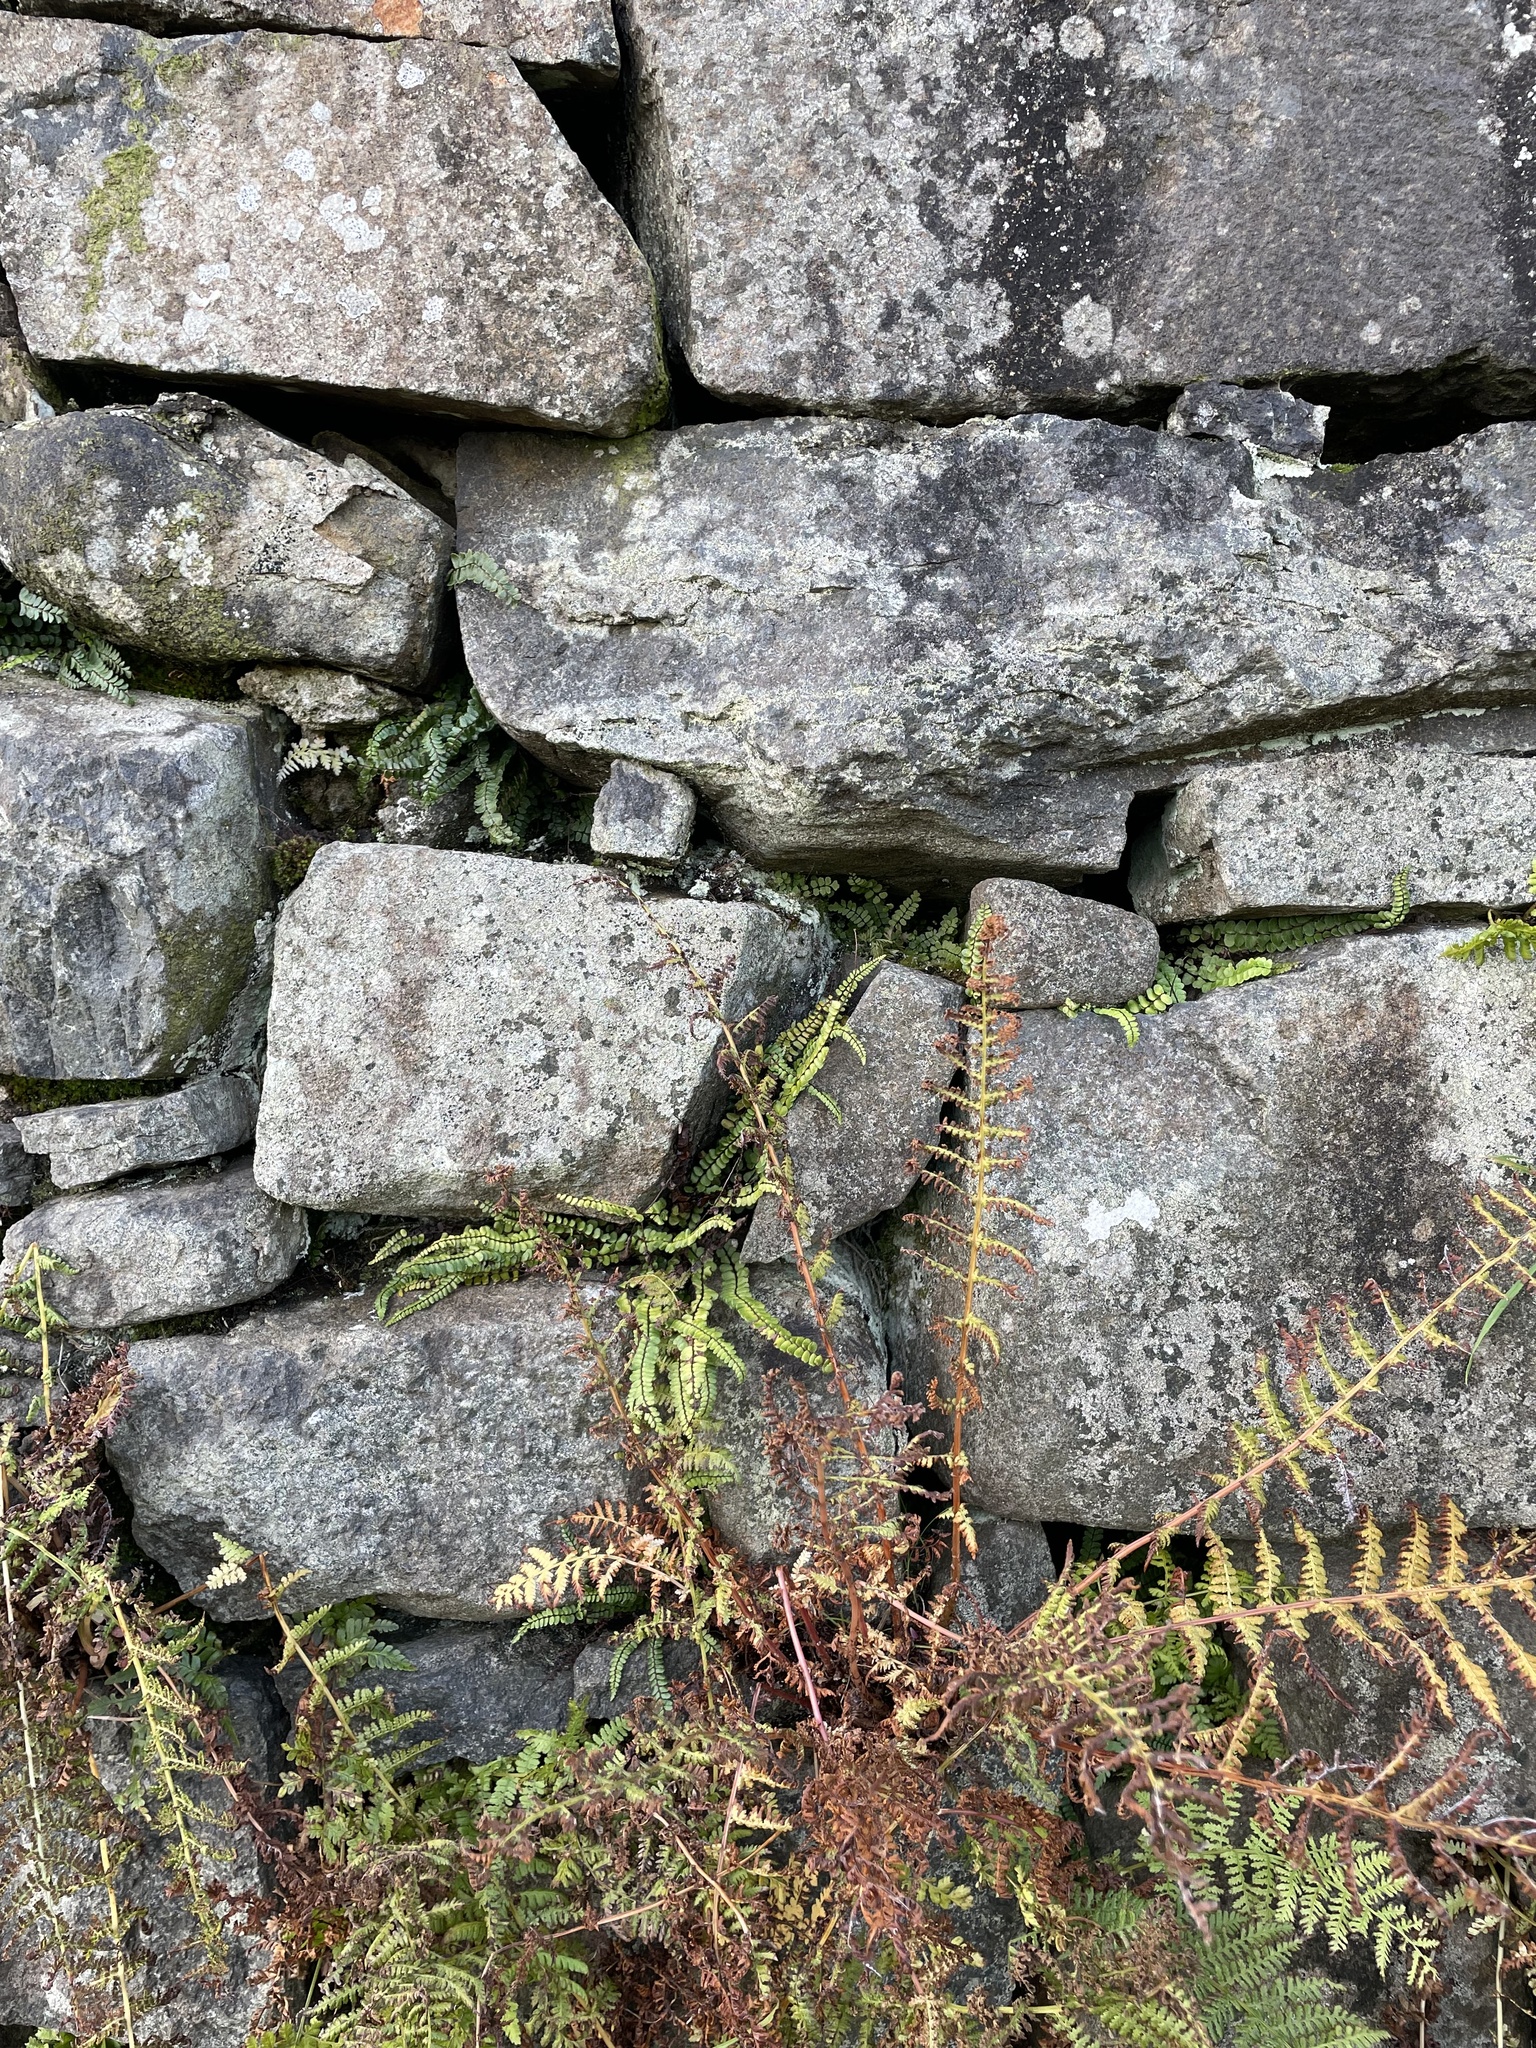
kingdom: Plantae
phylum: Tracheophyta
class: Polypodiopsida
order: Polypodiales
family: Aspleniaceae
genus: Asplenium
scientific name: Asplenium trichomanes
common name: Maidenhair spleenwort
